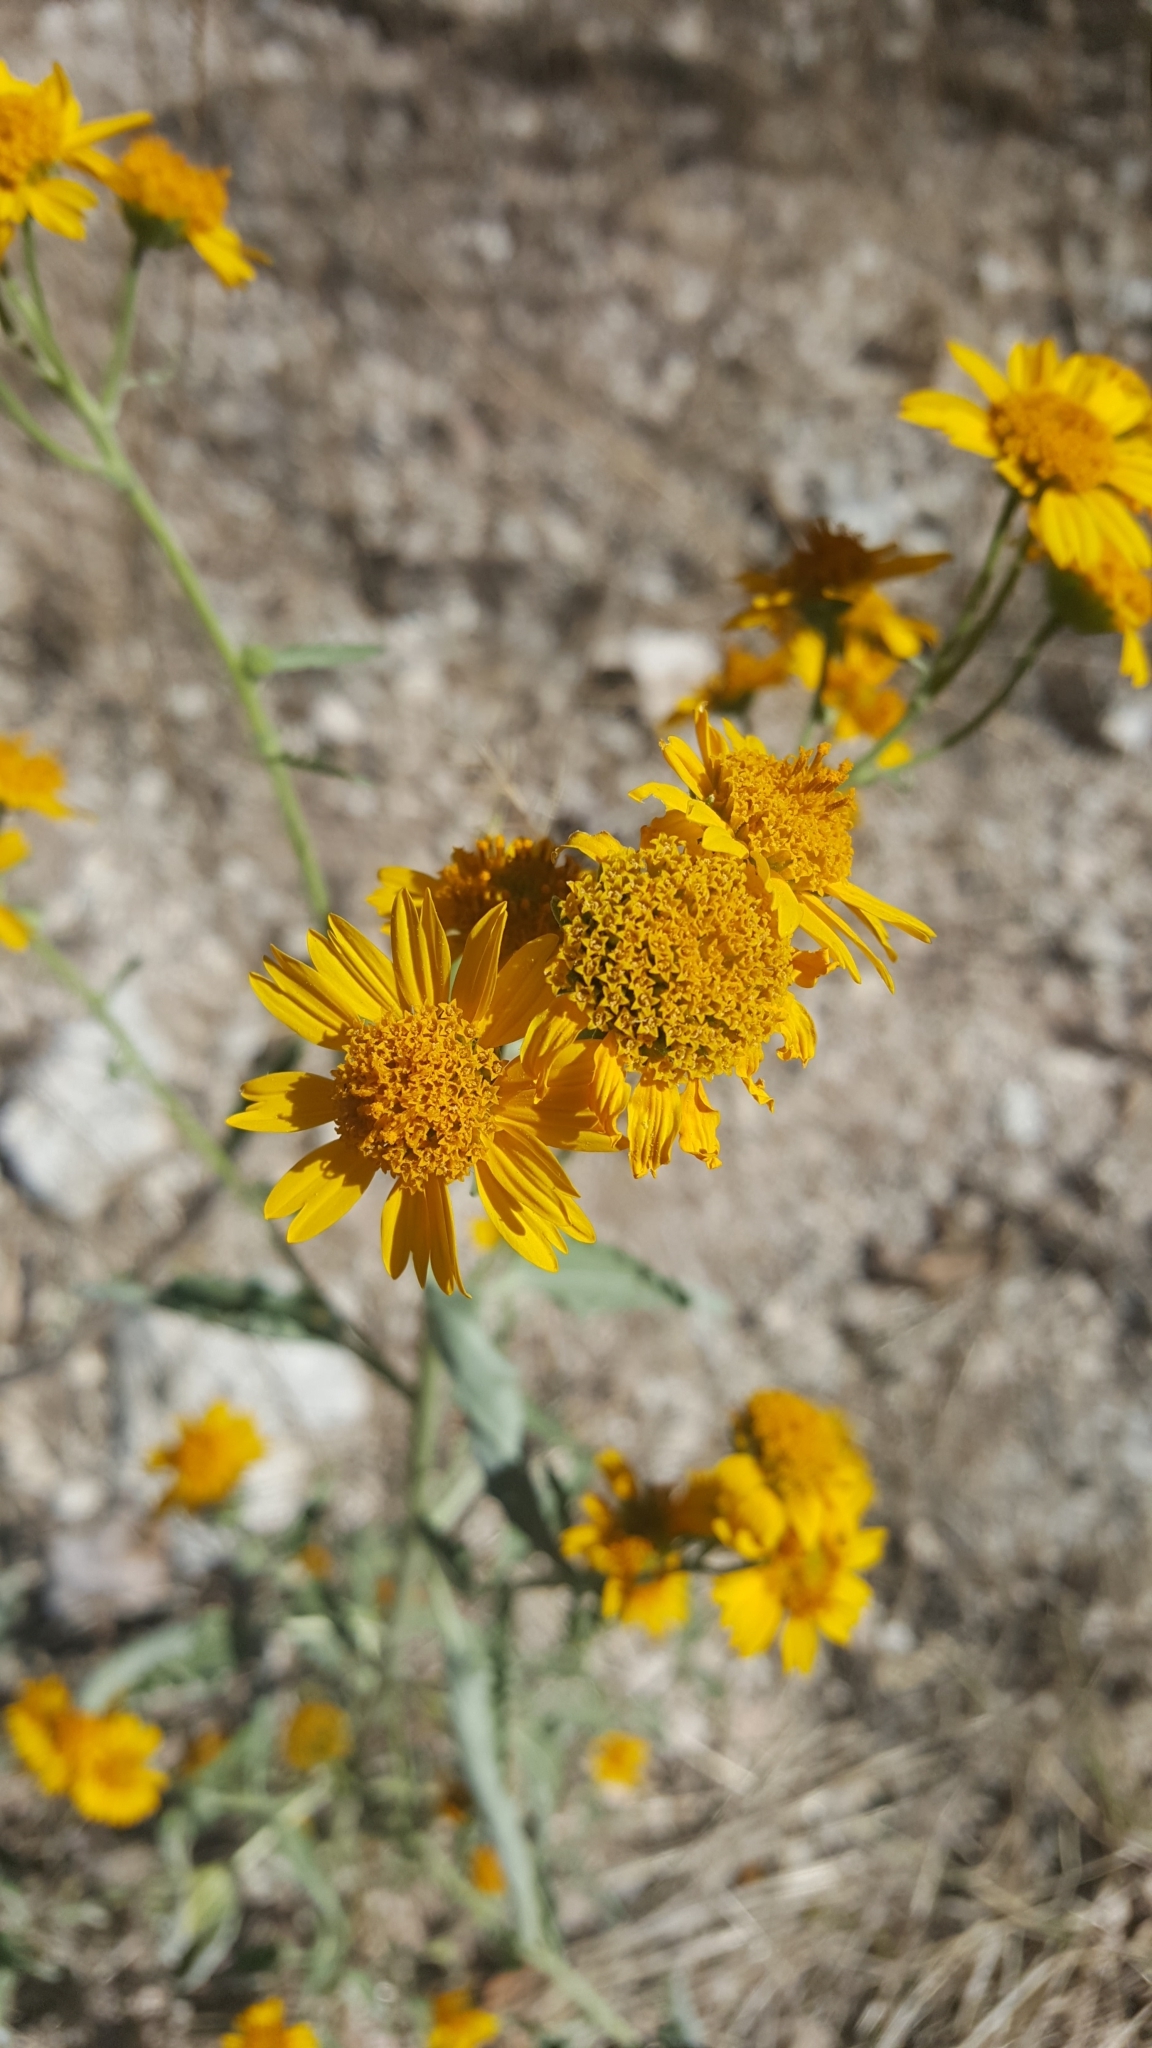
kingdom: Plantae
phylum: Tracheophyta
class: Magnoliopsida
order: Asterales
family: Asteraceae
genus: Verbesina
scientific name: Verbesina encelioides
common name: Golden crownbeard
